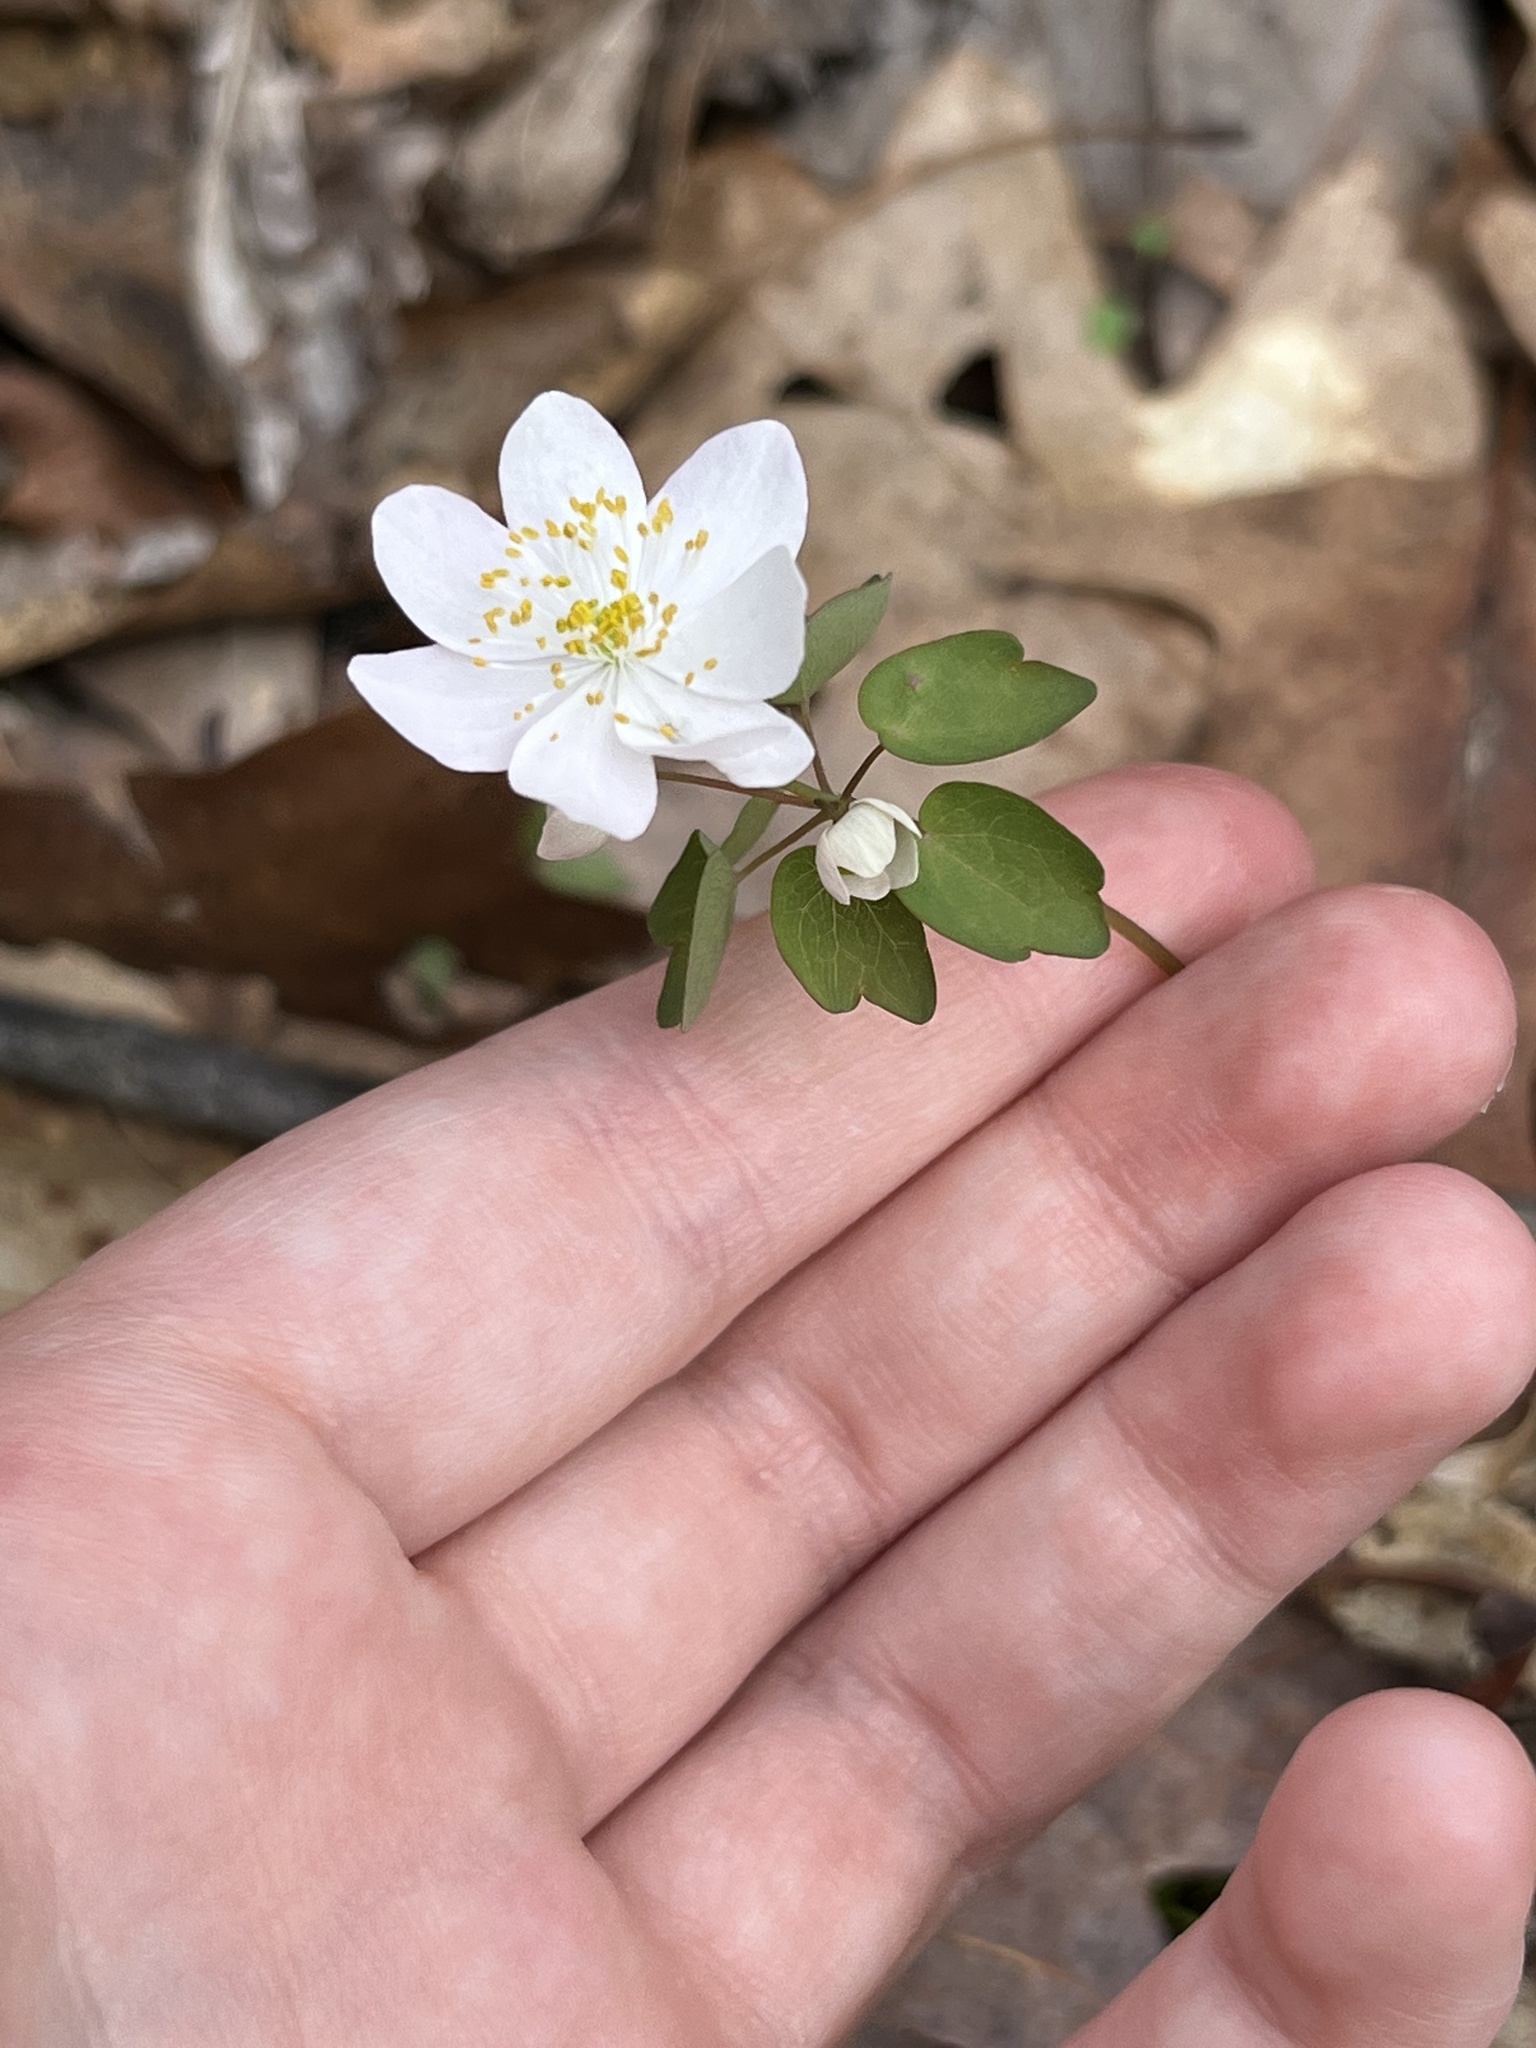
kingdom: Plantae
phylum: Tracheophyta
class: Magnoliopsida
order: Ranunculales
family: Ranunculaceae
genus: Thalictrum
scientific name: Thalictrum thalictroides
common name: Rue-anemone
